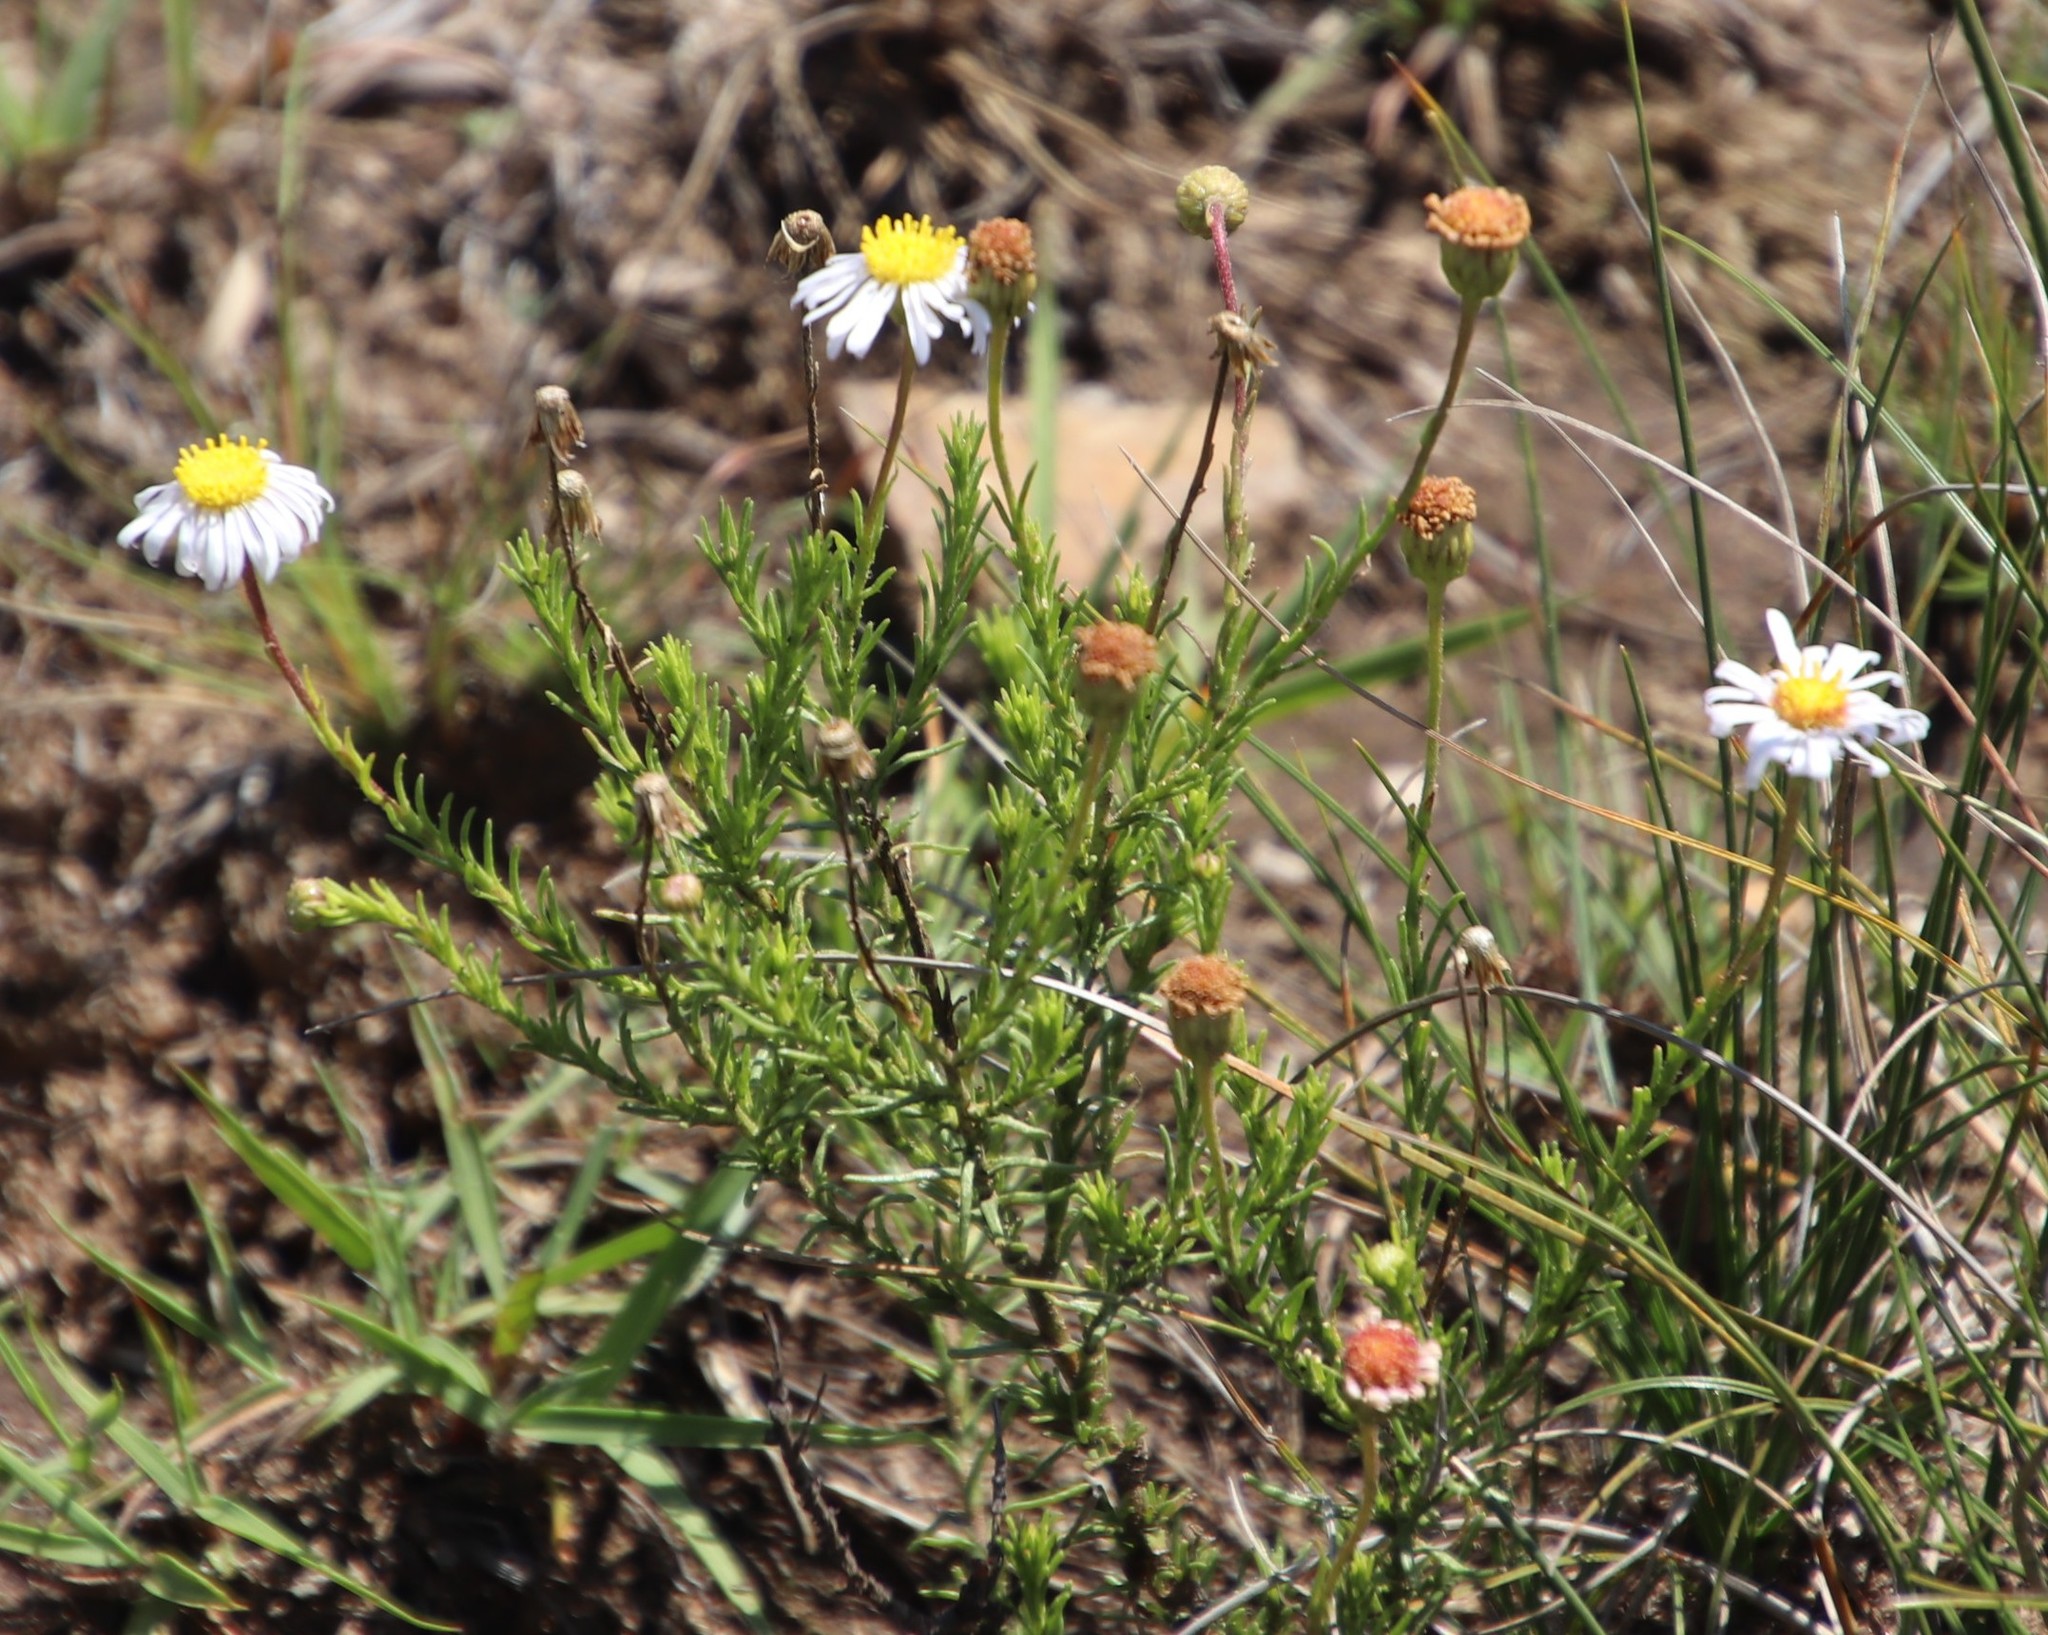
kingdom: Plantae
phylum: Tracheophyta
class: Magnoliopsida
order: Asterales
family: Asteraceae
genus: Felicia
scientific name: Felicia muricata
